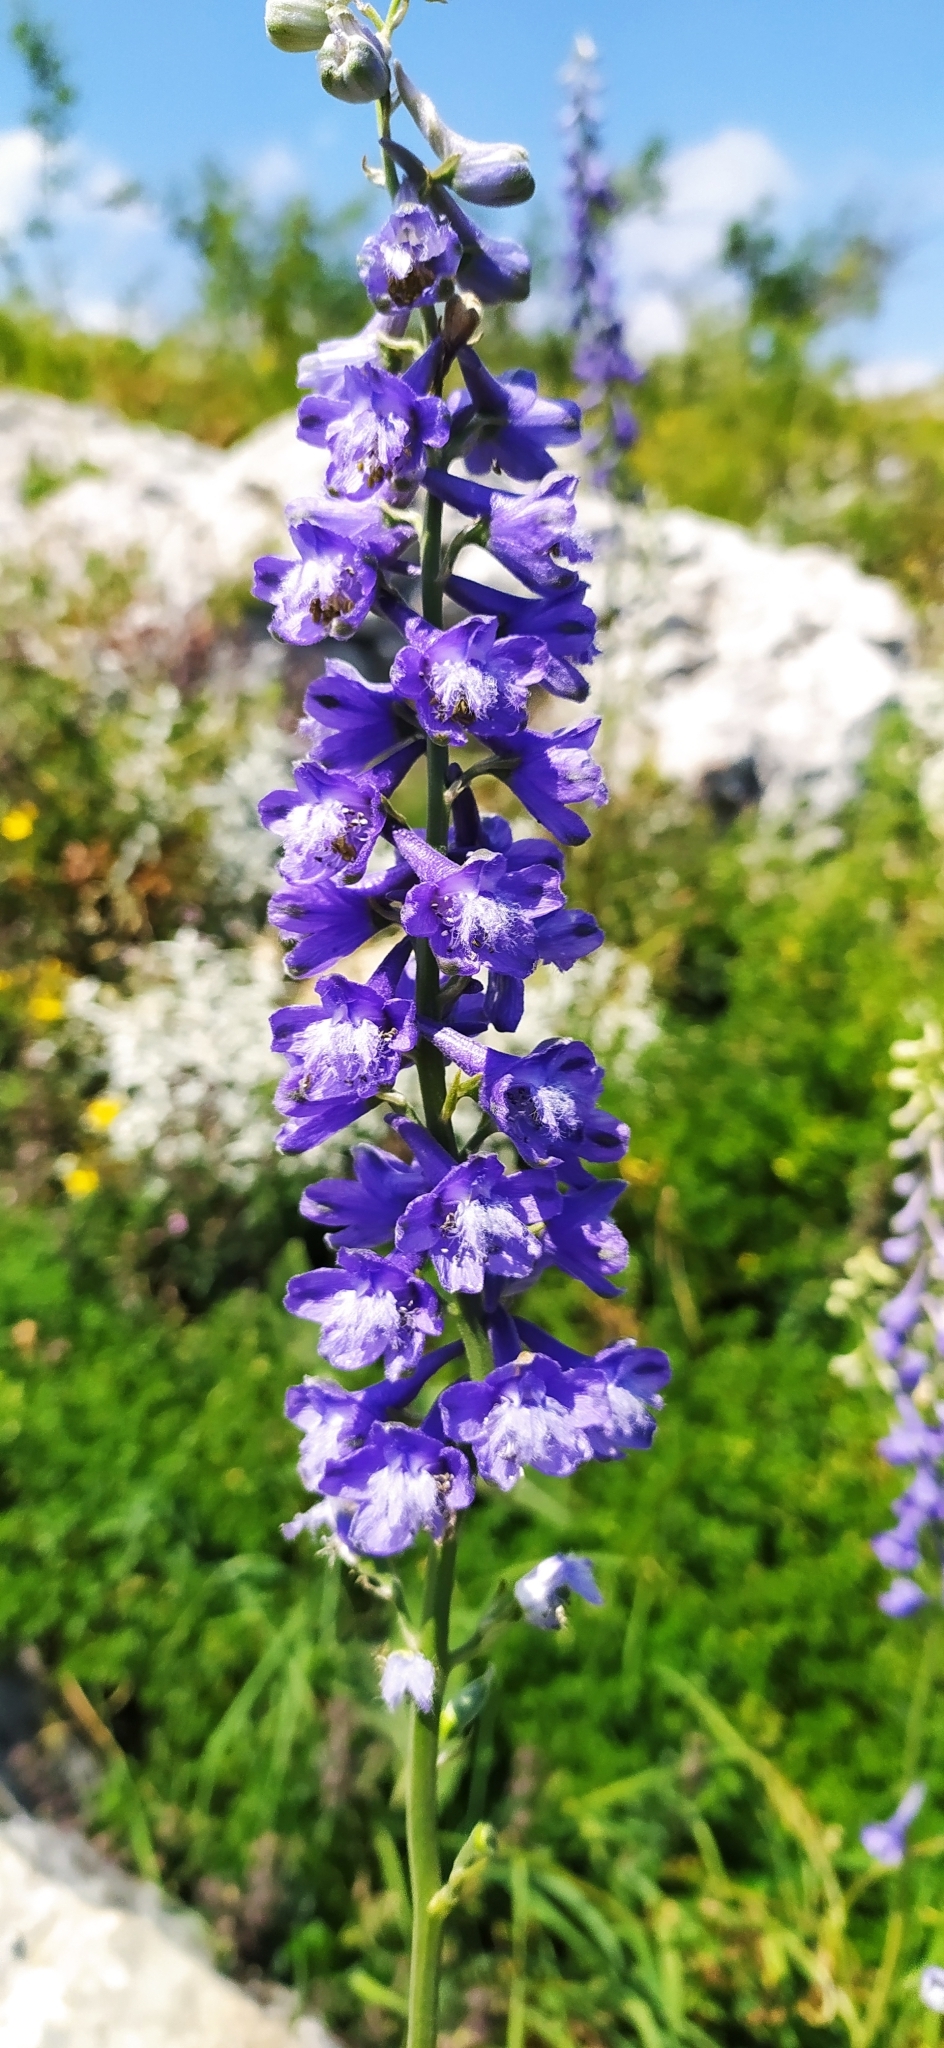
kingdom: Plantae
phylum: Tracheophyta
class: Magnoliopsida
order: Ranunculales
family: Ranunculaceae
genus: Delphinium
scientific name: Delphinium fissum
